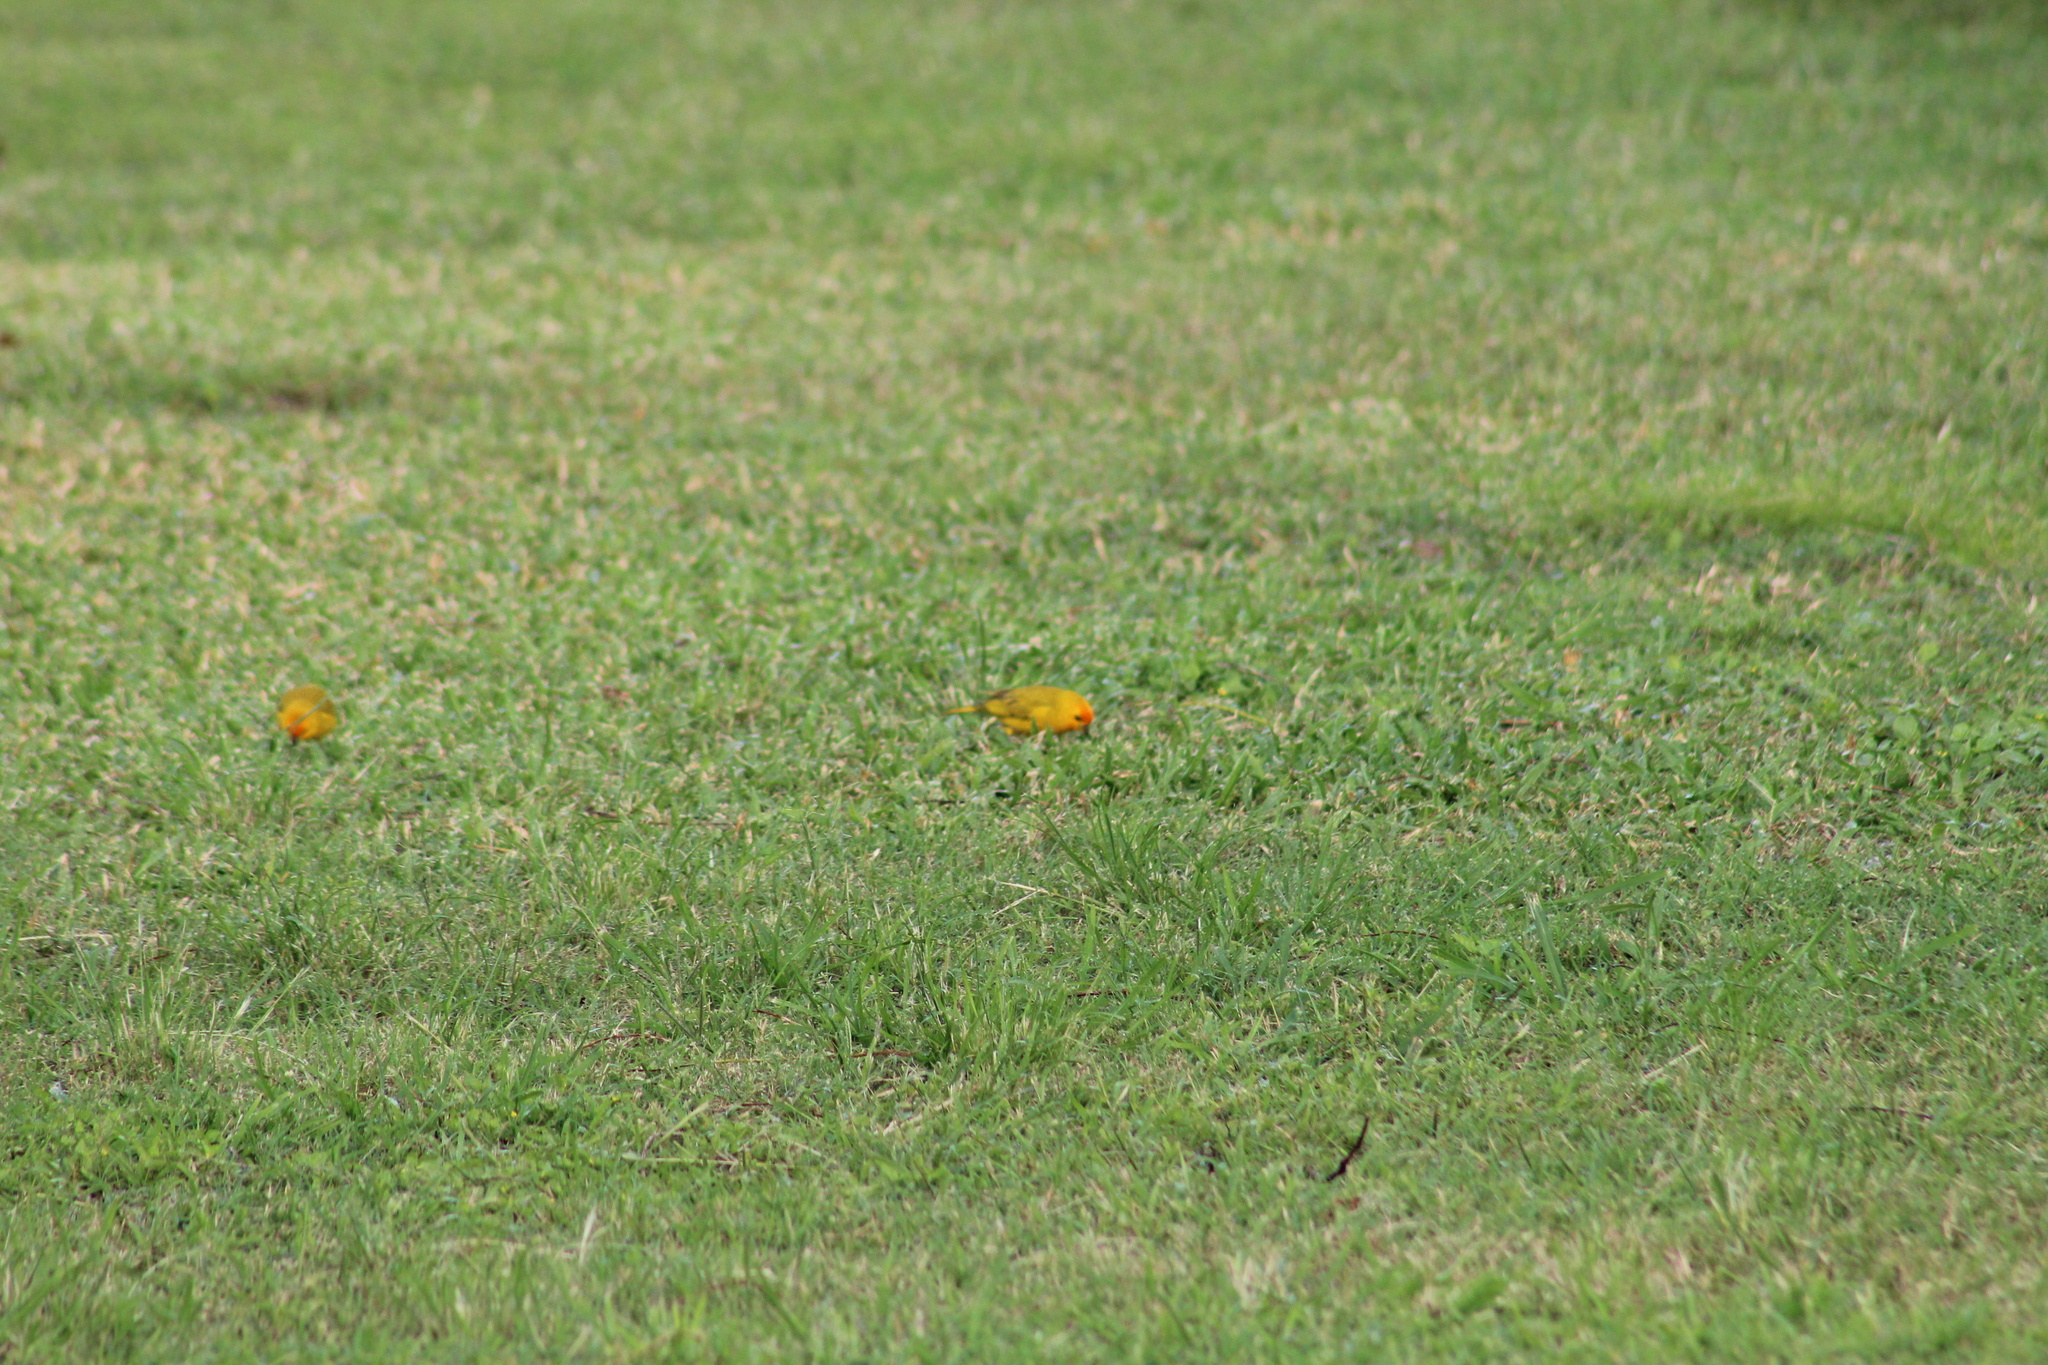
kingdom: Animalia
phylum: Chordata
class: Aves
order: Passeriformes
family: Thraupidae
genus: Sicalis
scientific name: Sicalis flaveola
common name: Saffron finch
